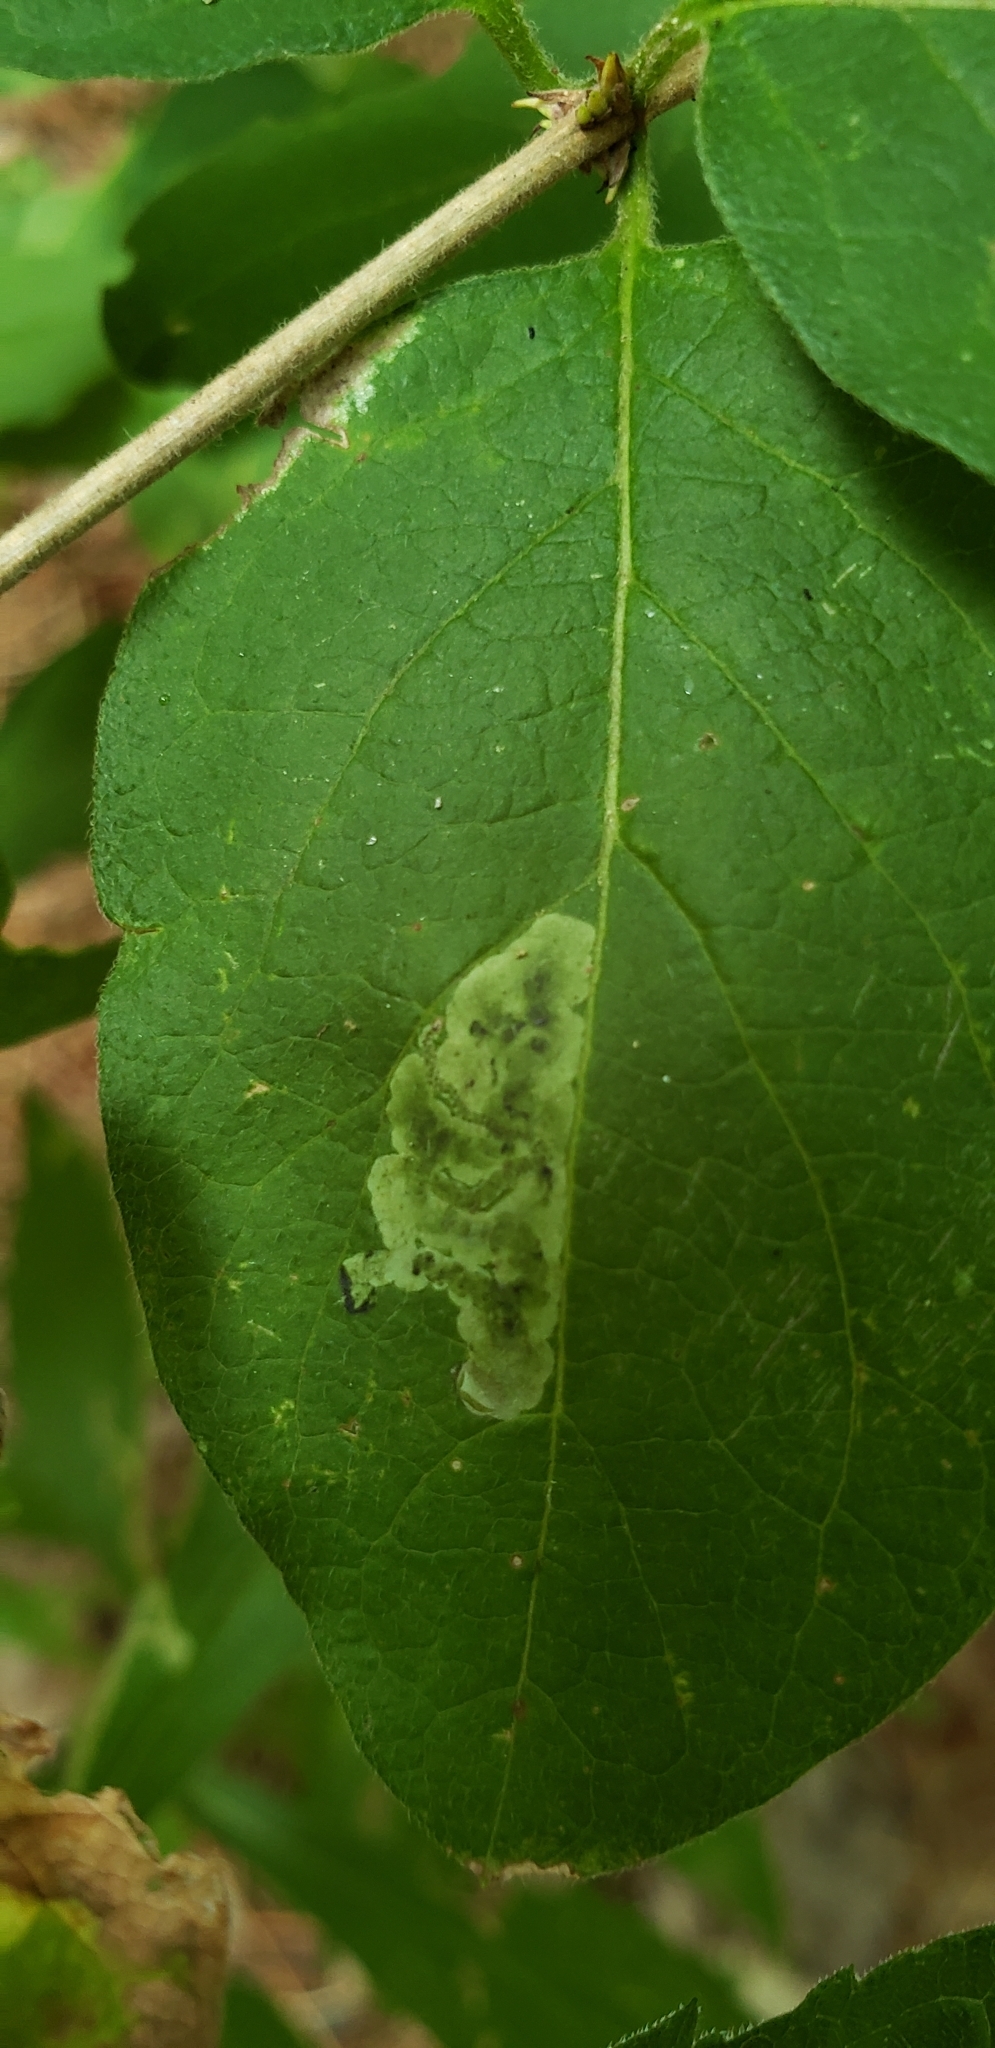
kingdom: Animalia
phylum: Arthropoda
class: Insecta
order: Diptera
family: Agromyzidae
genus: Aulagromyza
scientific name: Aulagromyza luteoscutellata
